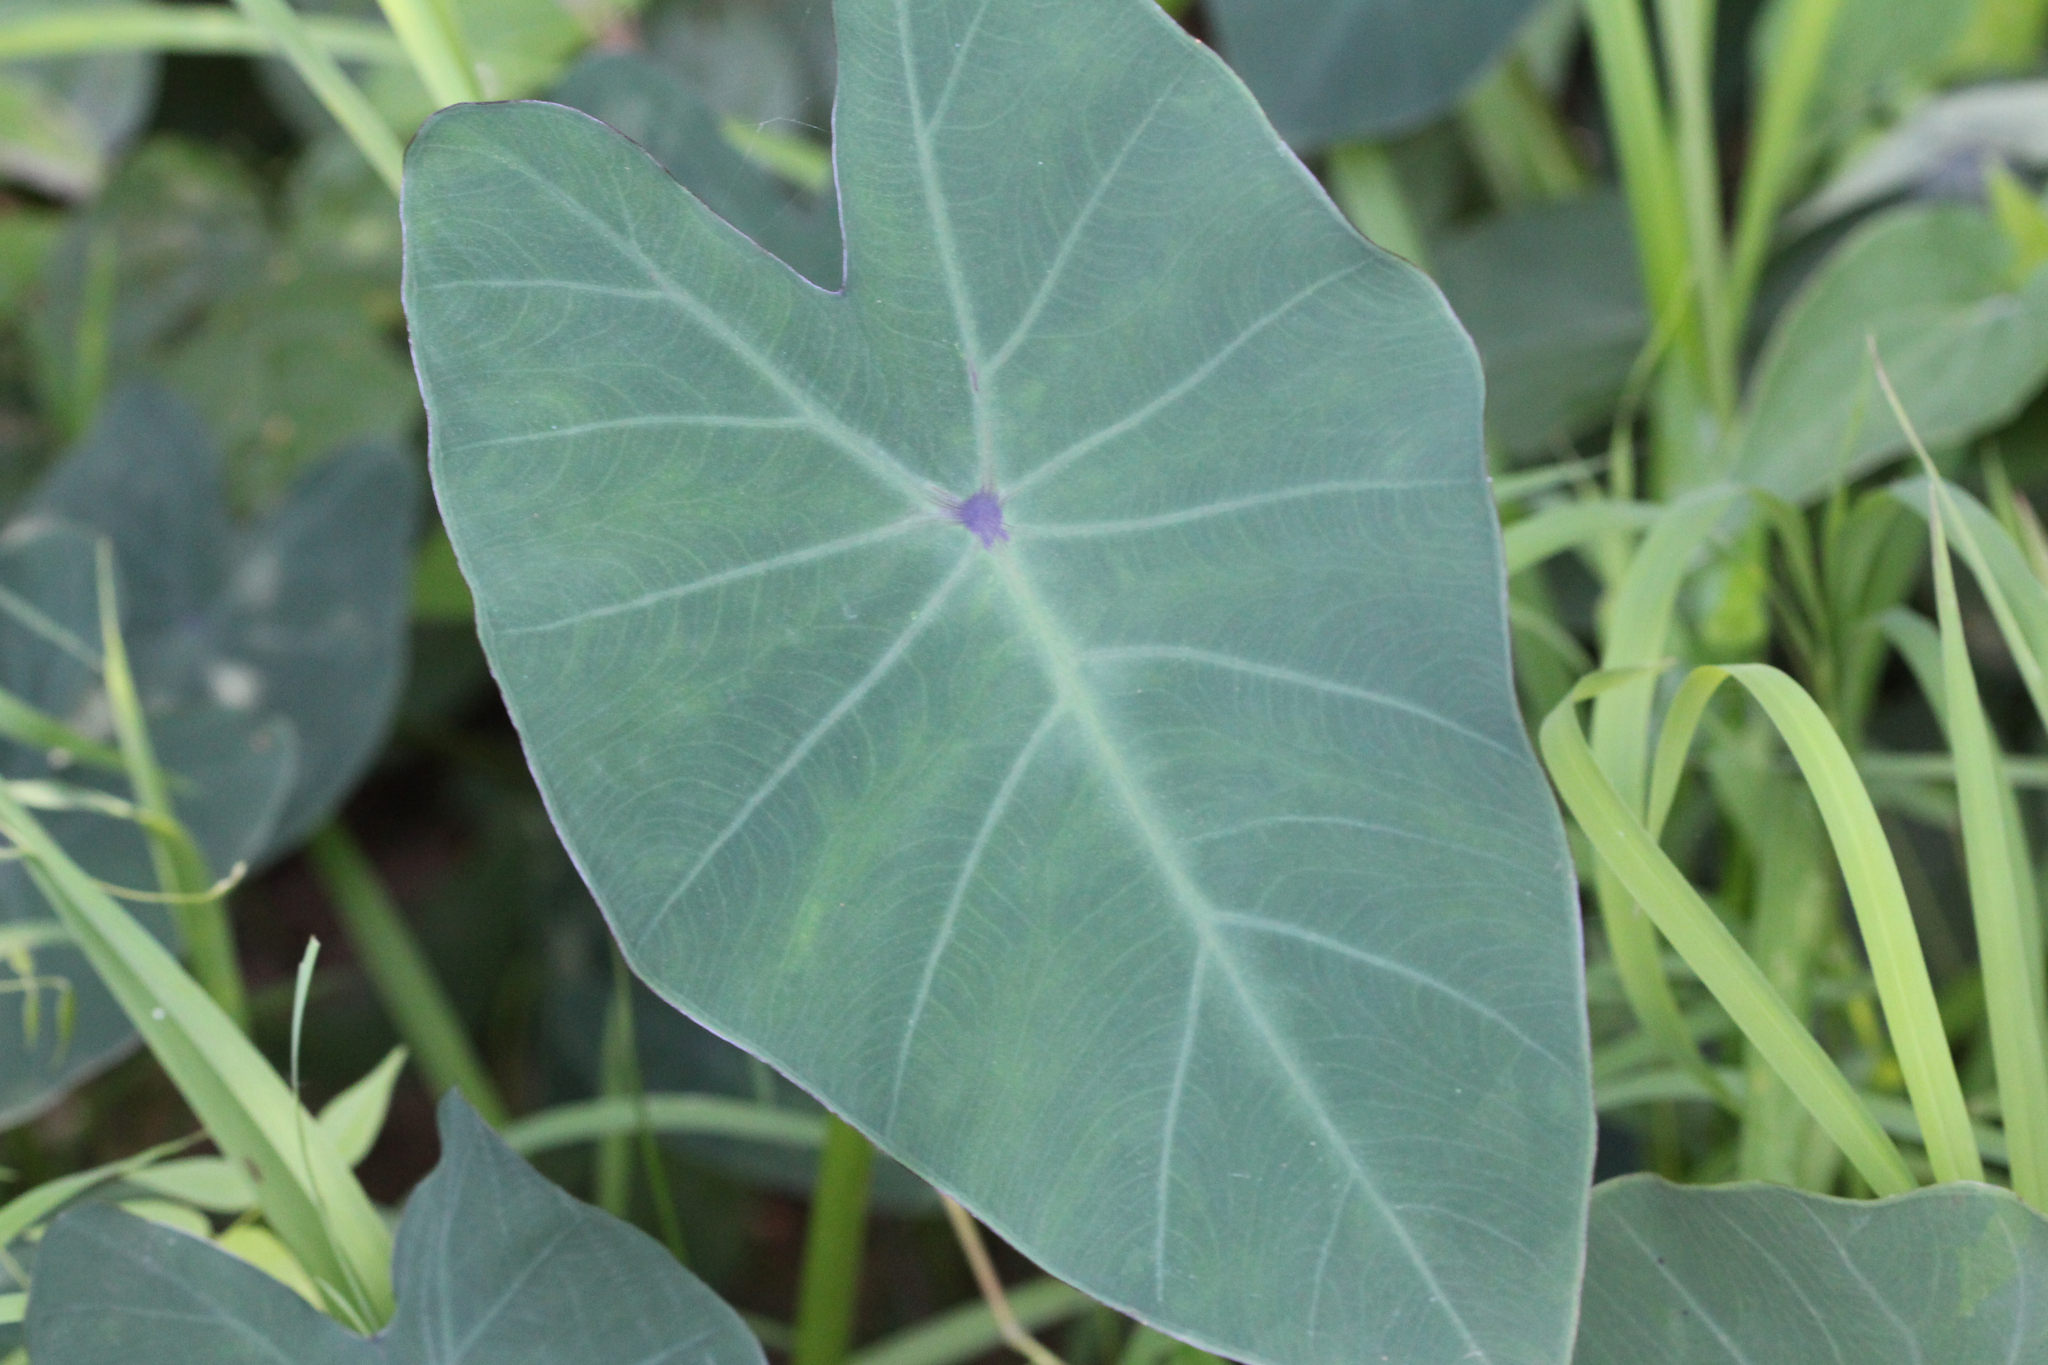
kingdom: Plantae
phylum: Tracheophyta
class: Liliopsida
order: Alismatales
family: Araceae
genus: Colocasia
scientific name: Colocasia esculenta
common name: Taro
